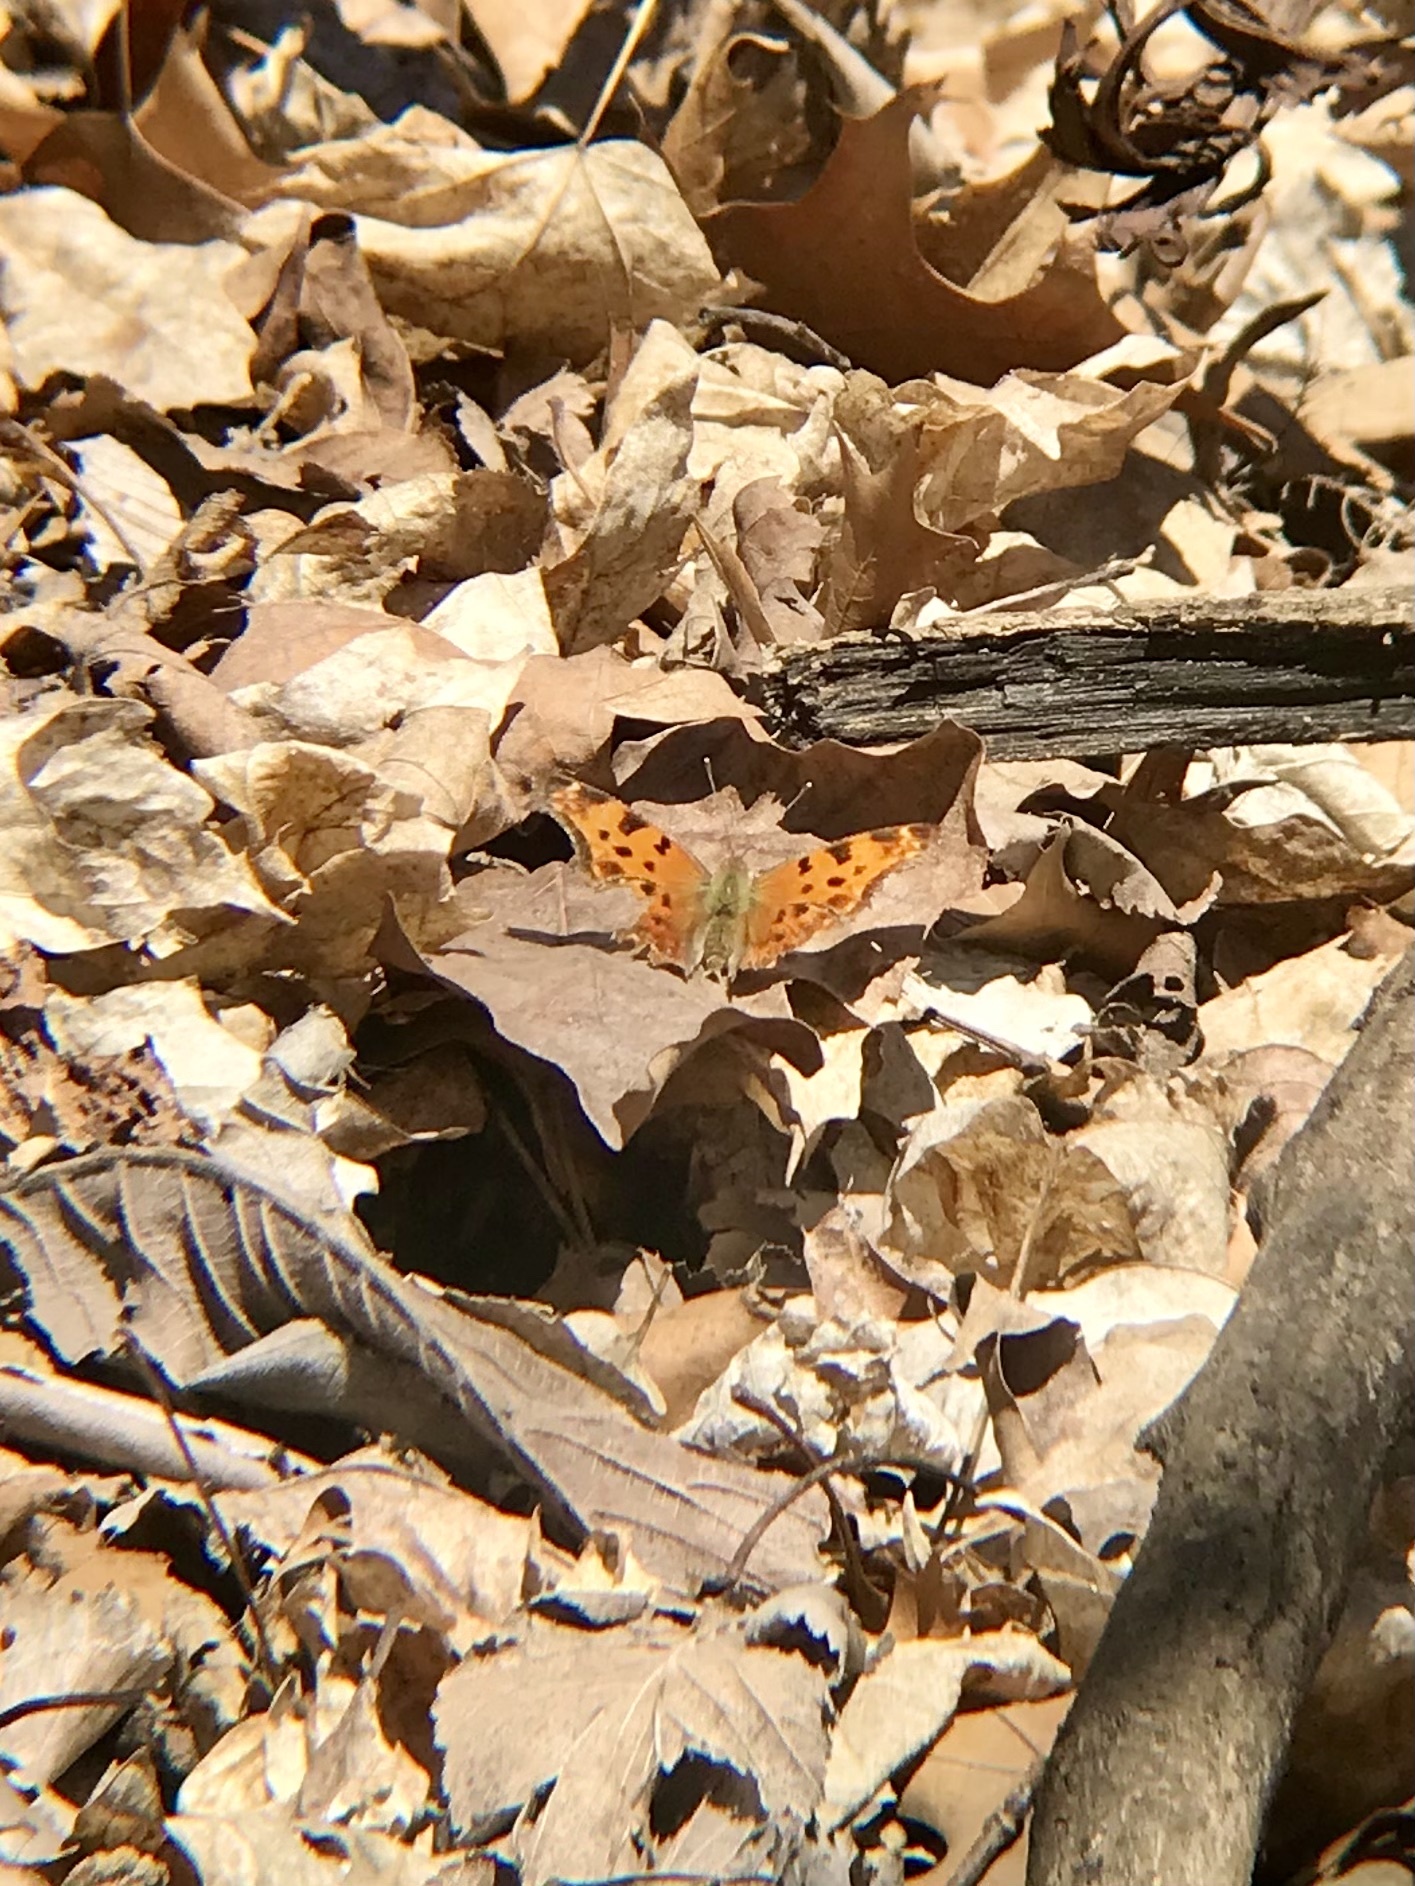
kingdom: Animalia
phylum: Arthropoda
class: Insecta
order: Lepidoptera
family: Nymphalidae
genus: Polygonia
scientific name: Polygonia comma
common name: Eastern comma
